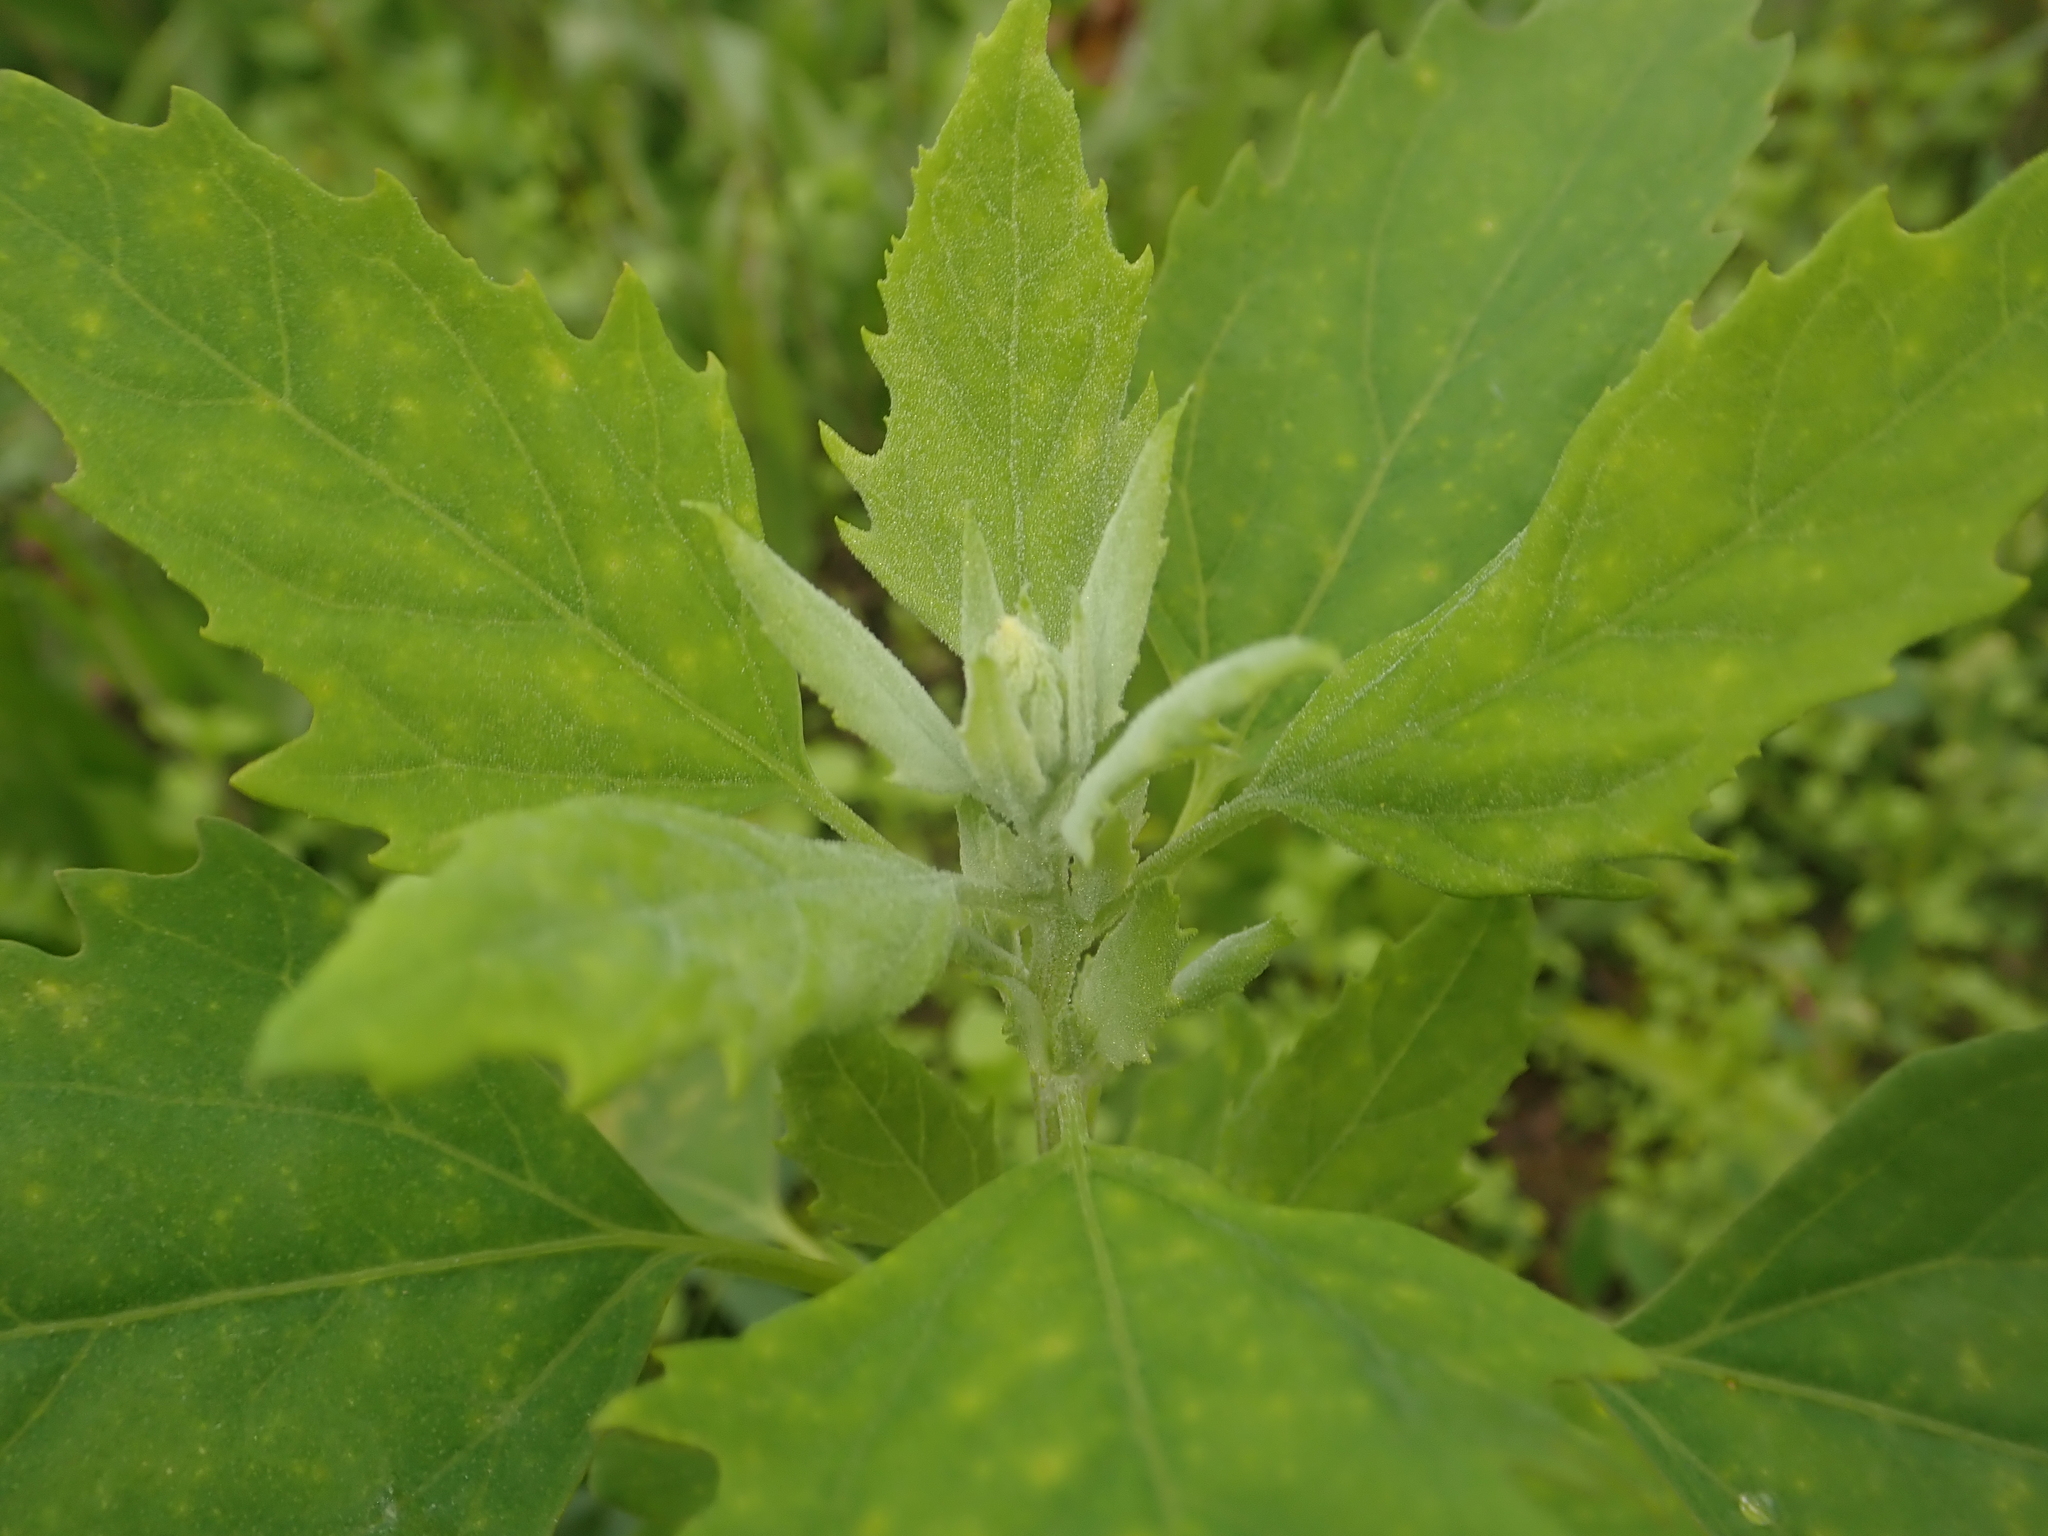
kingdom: Plantae
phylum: Tracheophyta
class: Magnoliopsida
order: Caryophyllales
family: Amaranthaceae
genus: Chenopodium
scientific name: Chenopodium album
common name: Fat-hen
